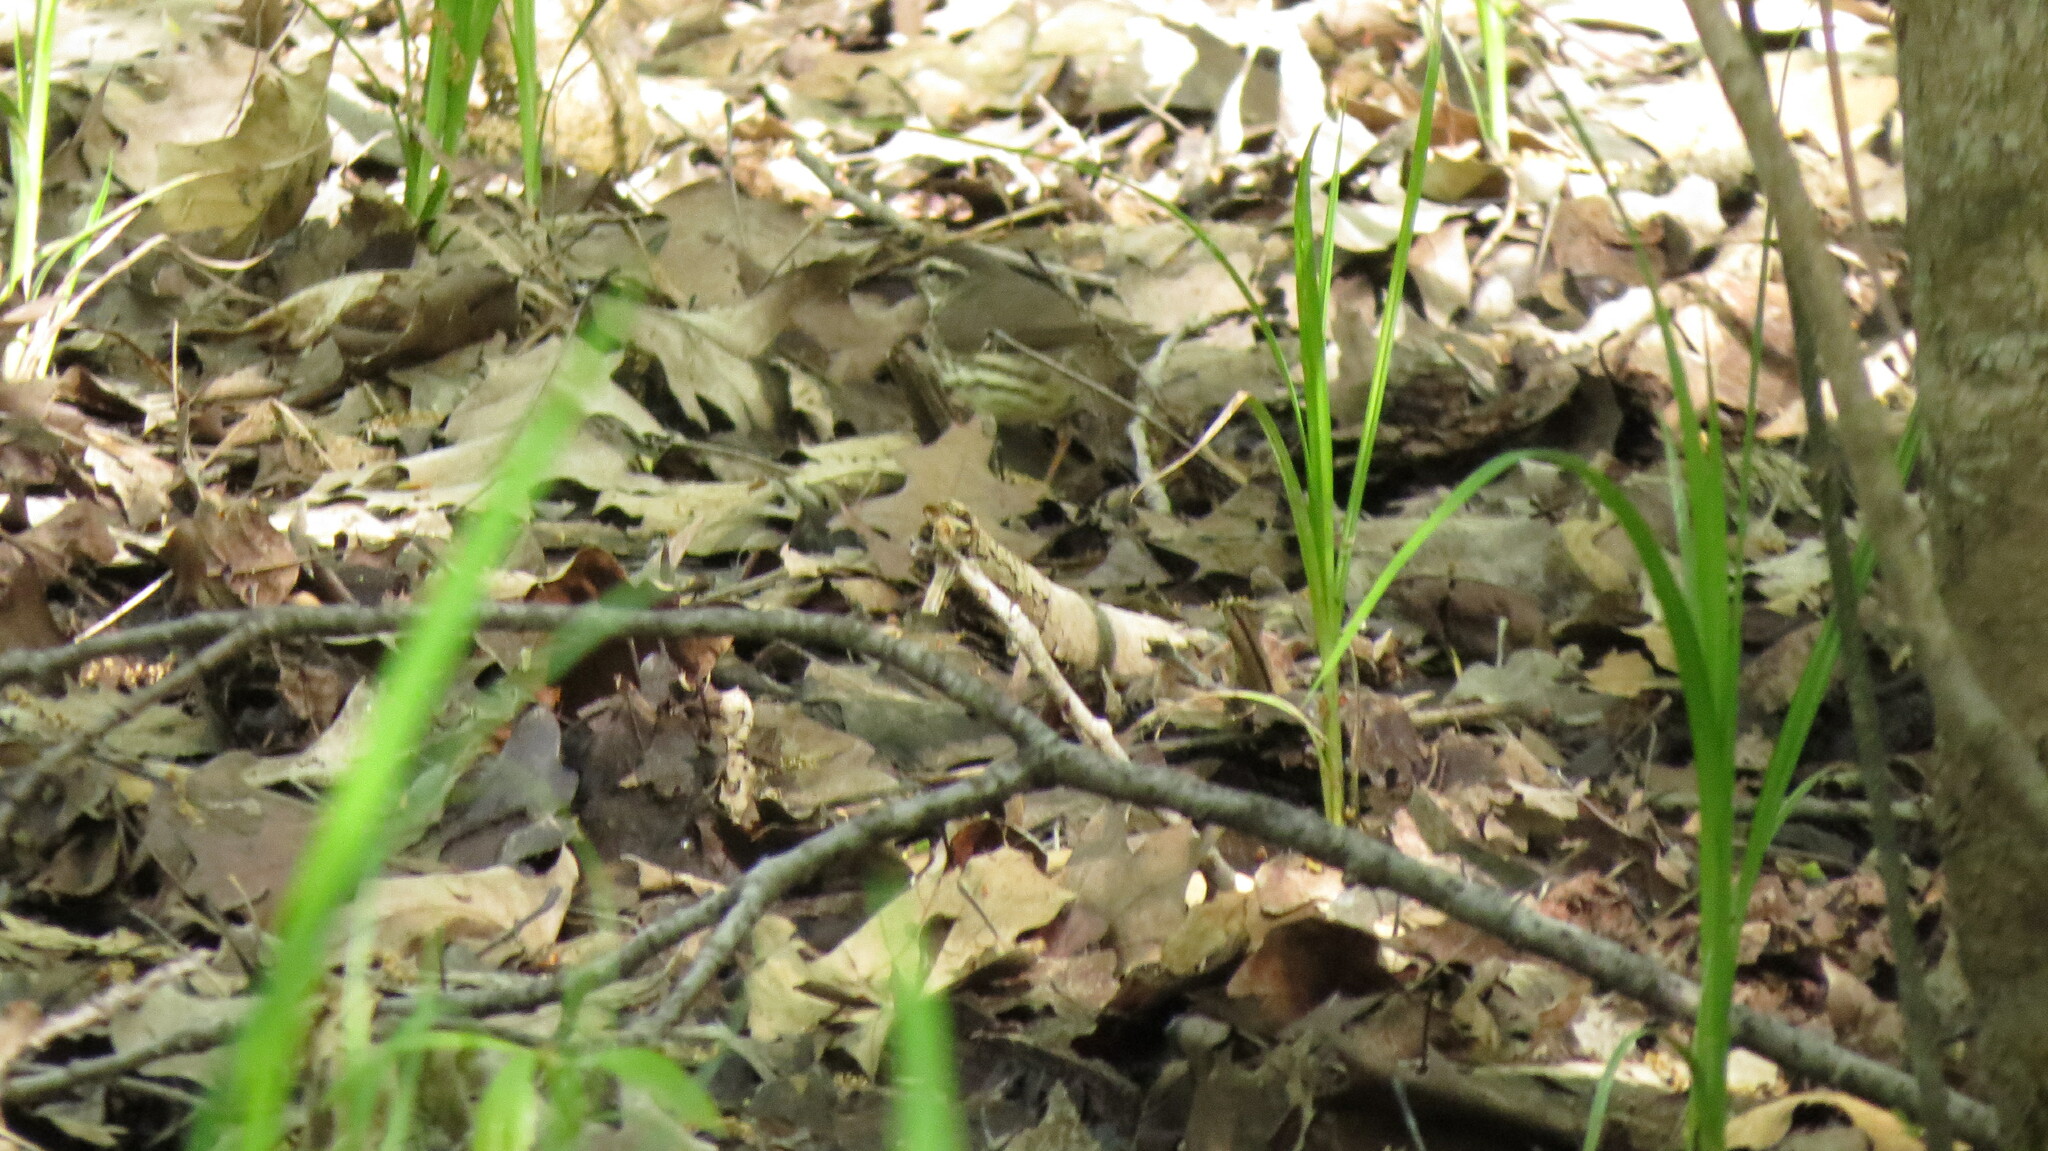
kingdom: Animalia
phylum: Chordata
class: Aves
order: Passeriformes
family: Parulidae
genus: Parkesia
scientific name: Parkesia noveboracensis
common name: Northern waterthrush
